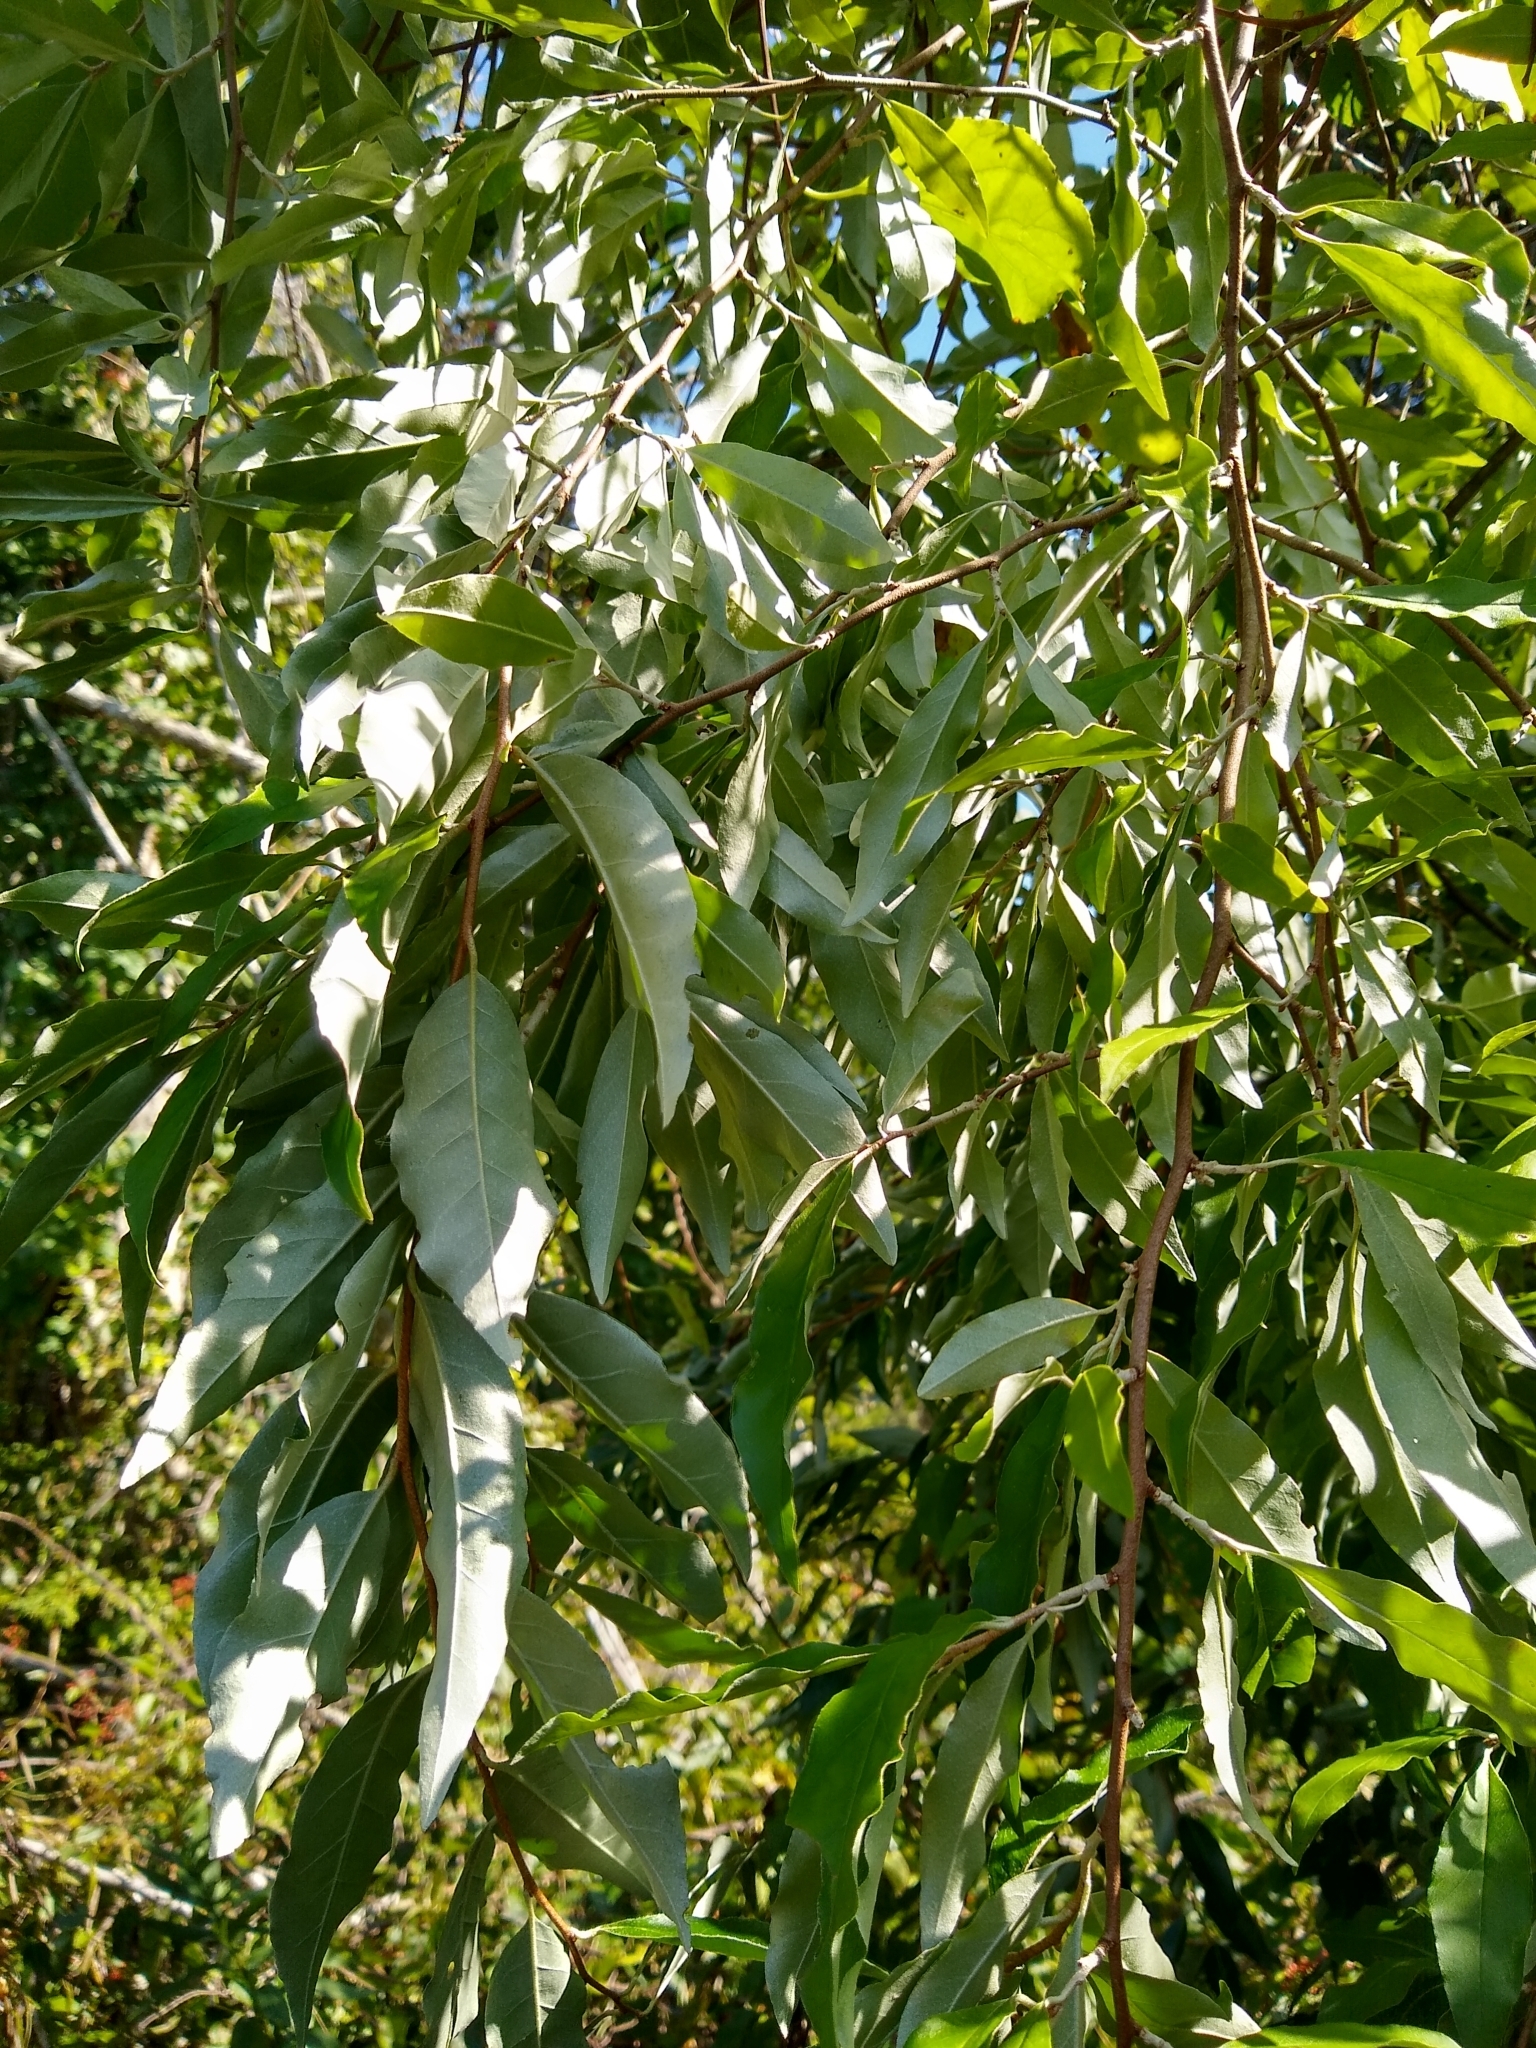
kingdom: Plantae
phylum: Tracheophyta
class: Magnoliopsida
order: Rosales
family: Elaeagnaceae
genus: Elaeagnus
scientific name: Elaeagnus umbellata
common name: Autumn olive
